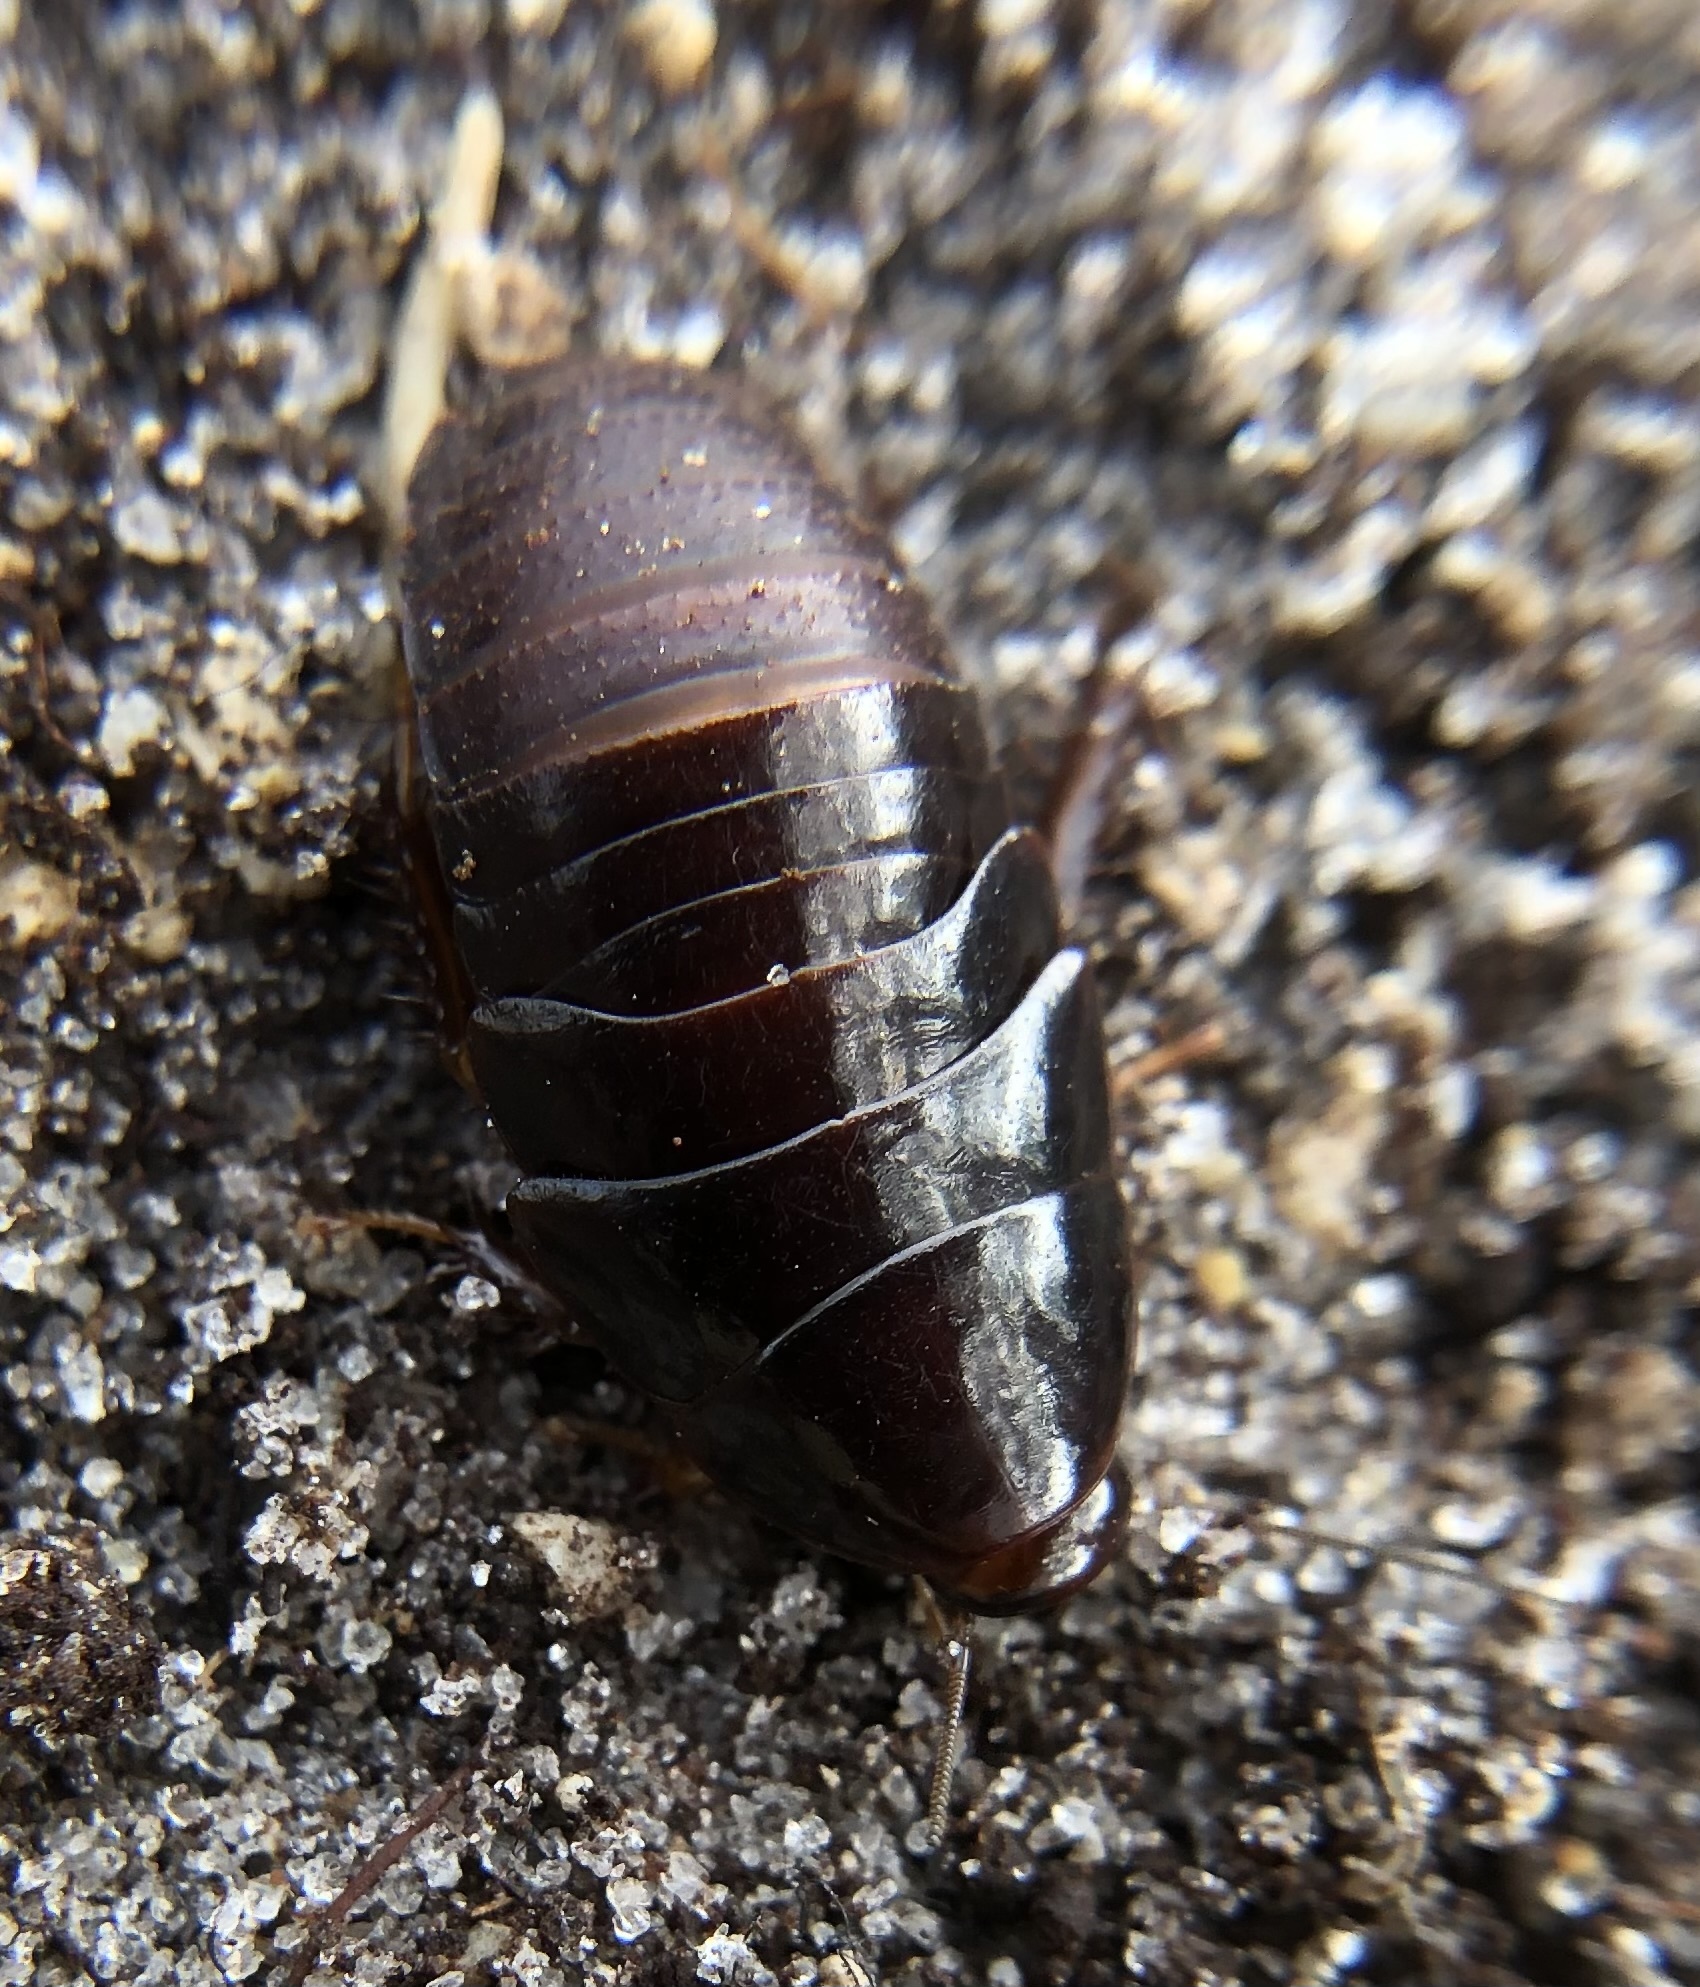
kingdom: Animalia
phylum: Arthropoda
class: Insecta
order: Blattodea
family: Blaberidae
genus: Pycnoscelus
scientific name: Pycnoscelus surinamensis
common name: Surinam cockroach
